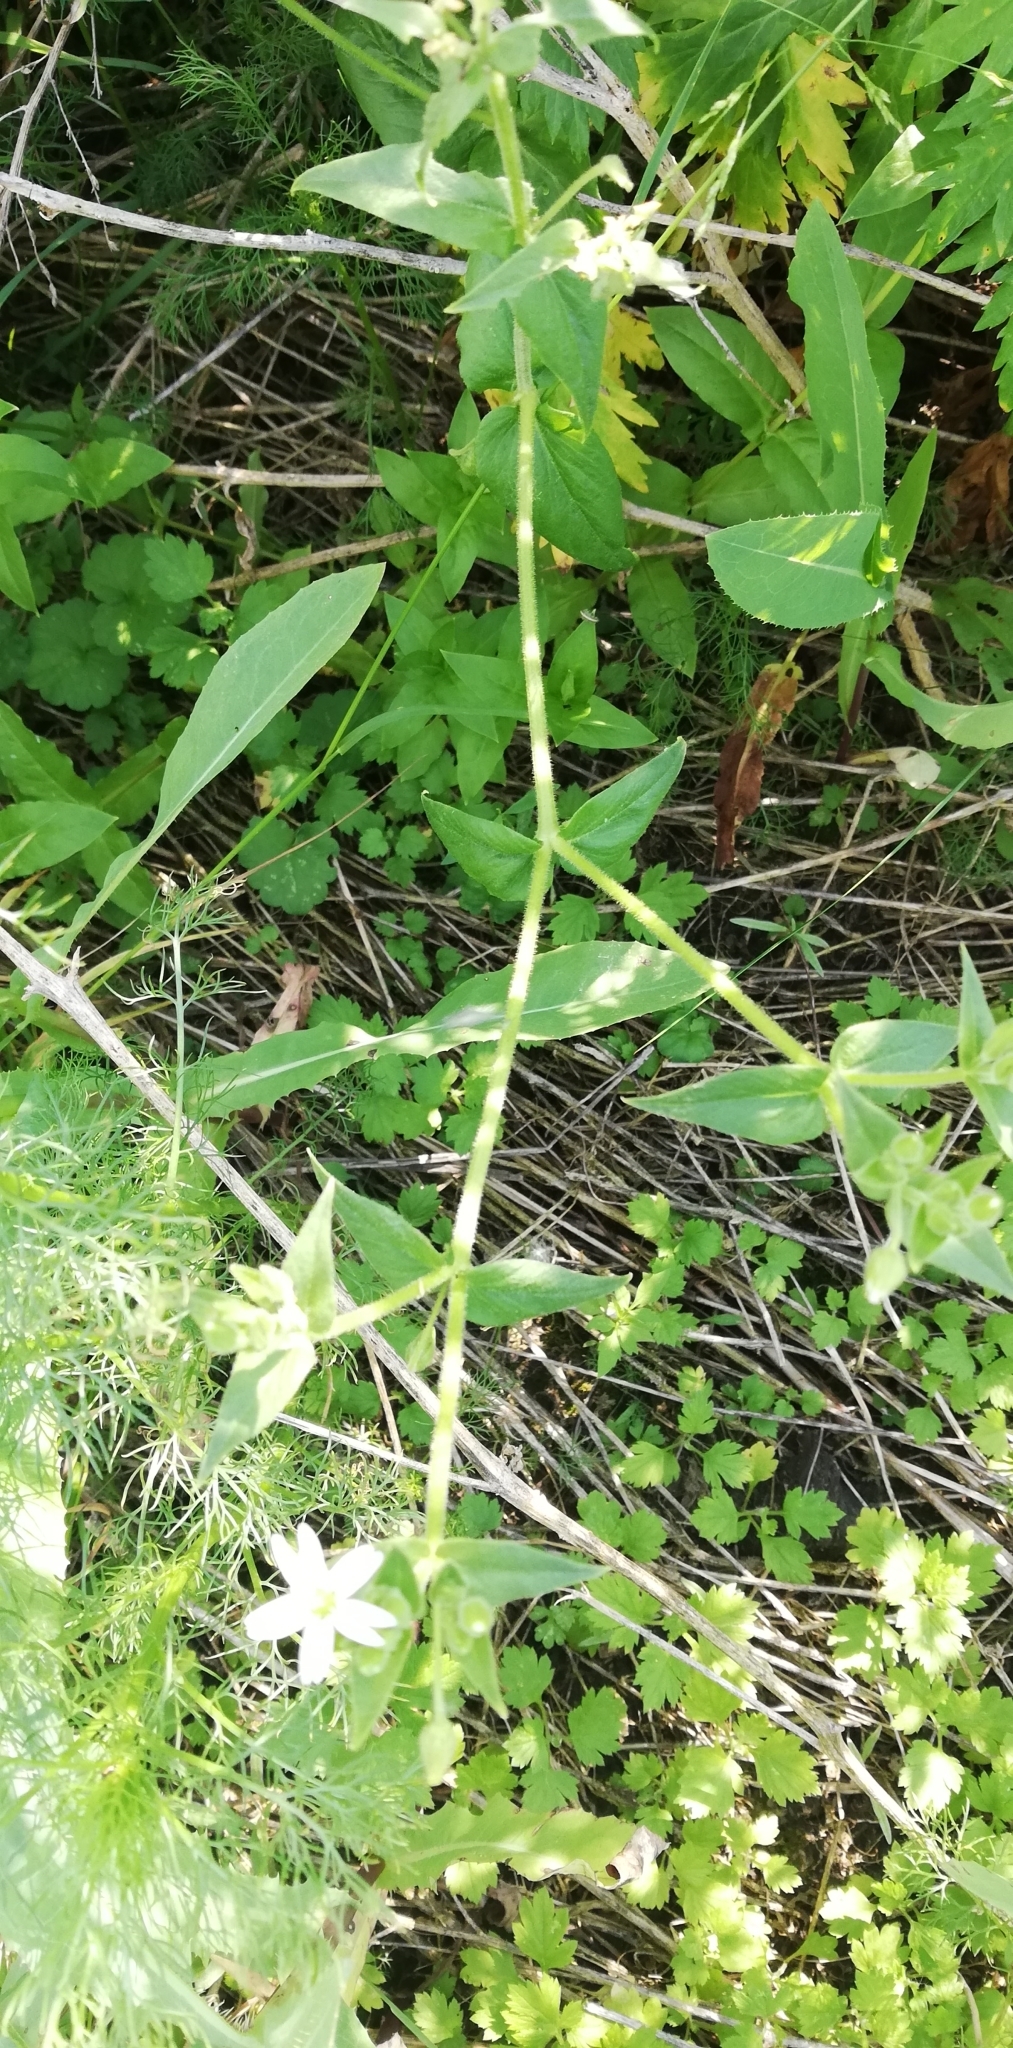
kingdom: Plantae
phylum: Tracheophyta
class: Magnoliopsida
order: Caryophyllales
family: Caryophyllaceae
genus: Stellaria
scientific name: Stellaria aquatica
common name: Water chickweed
